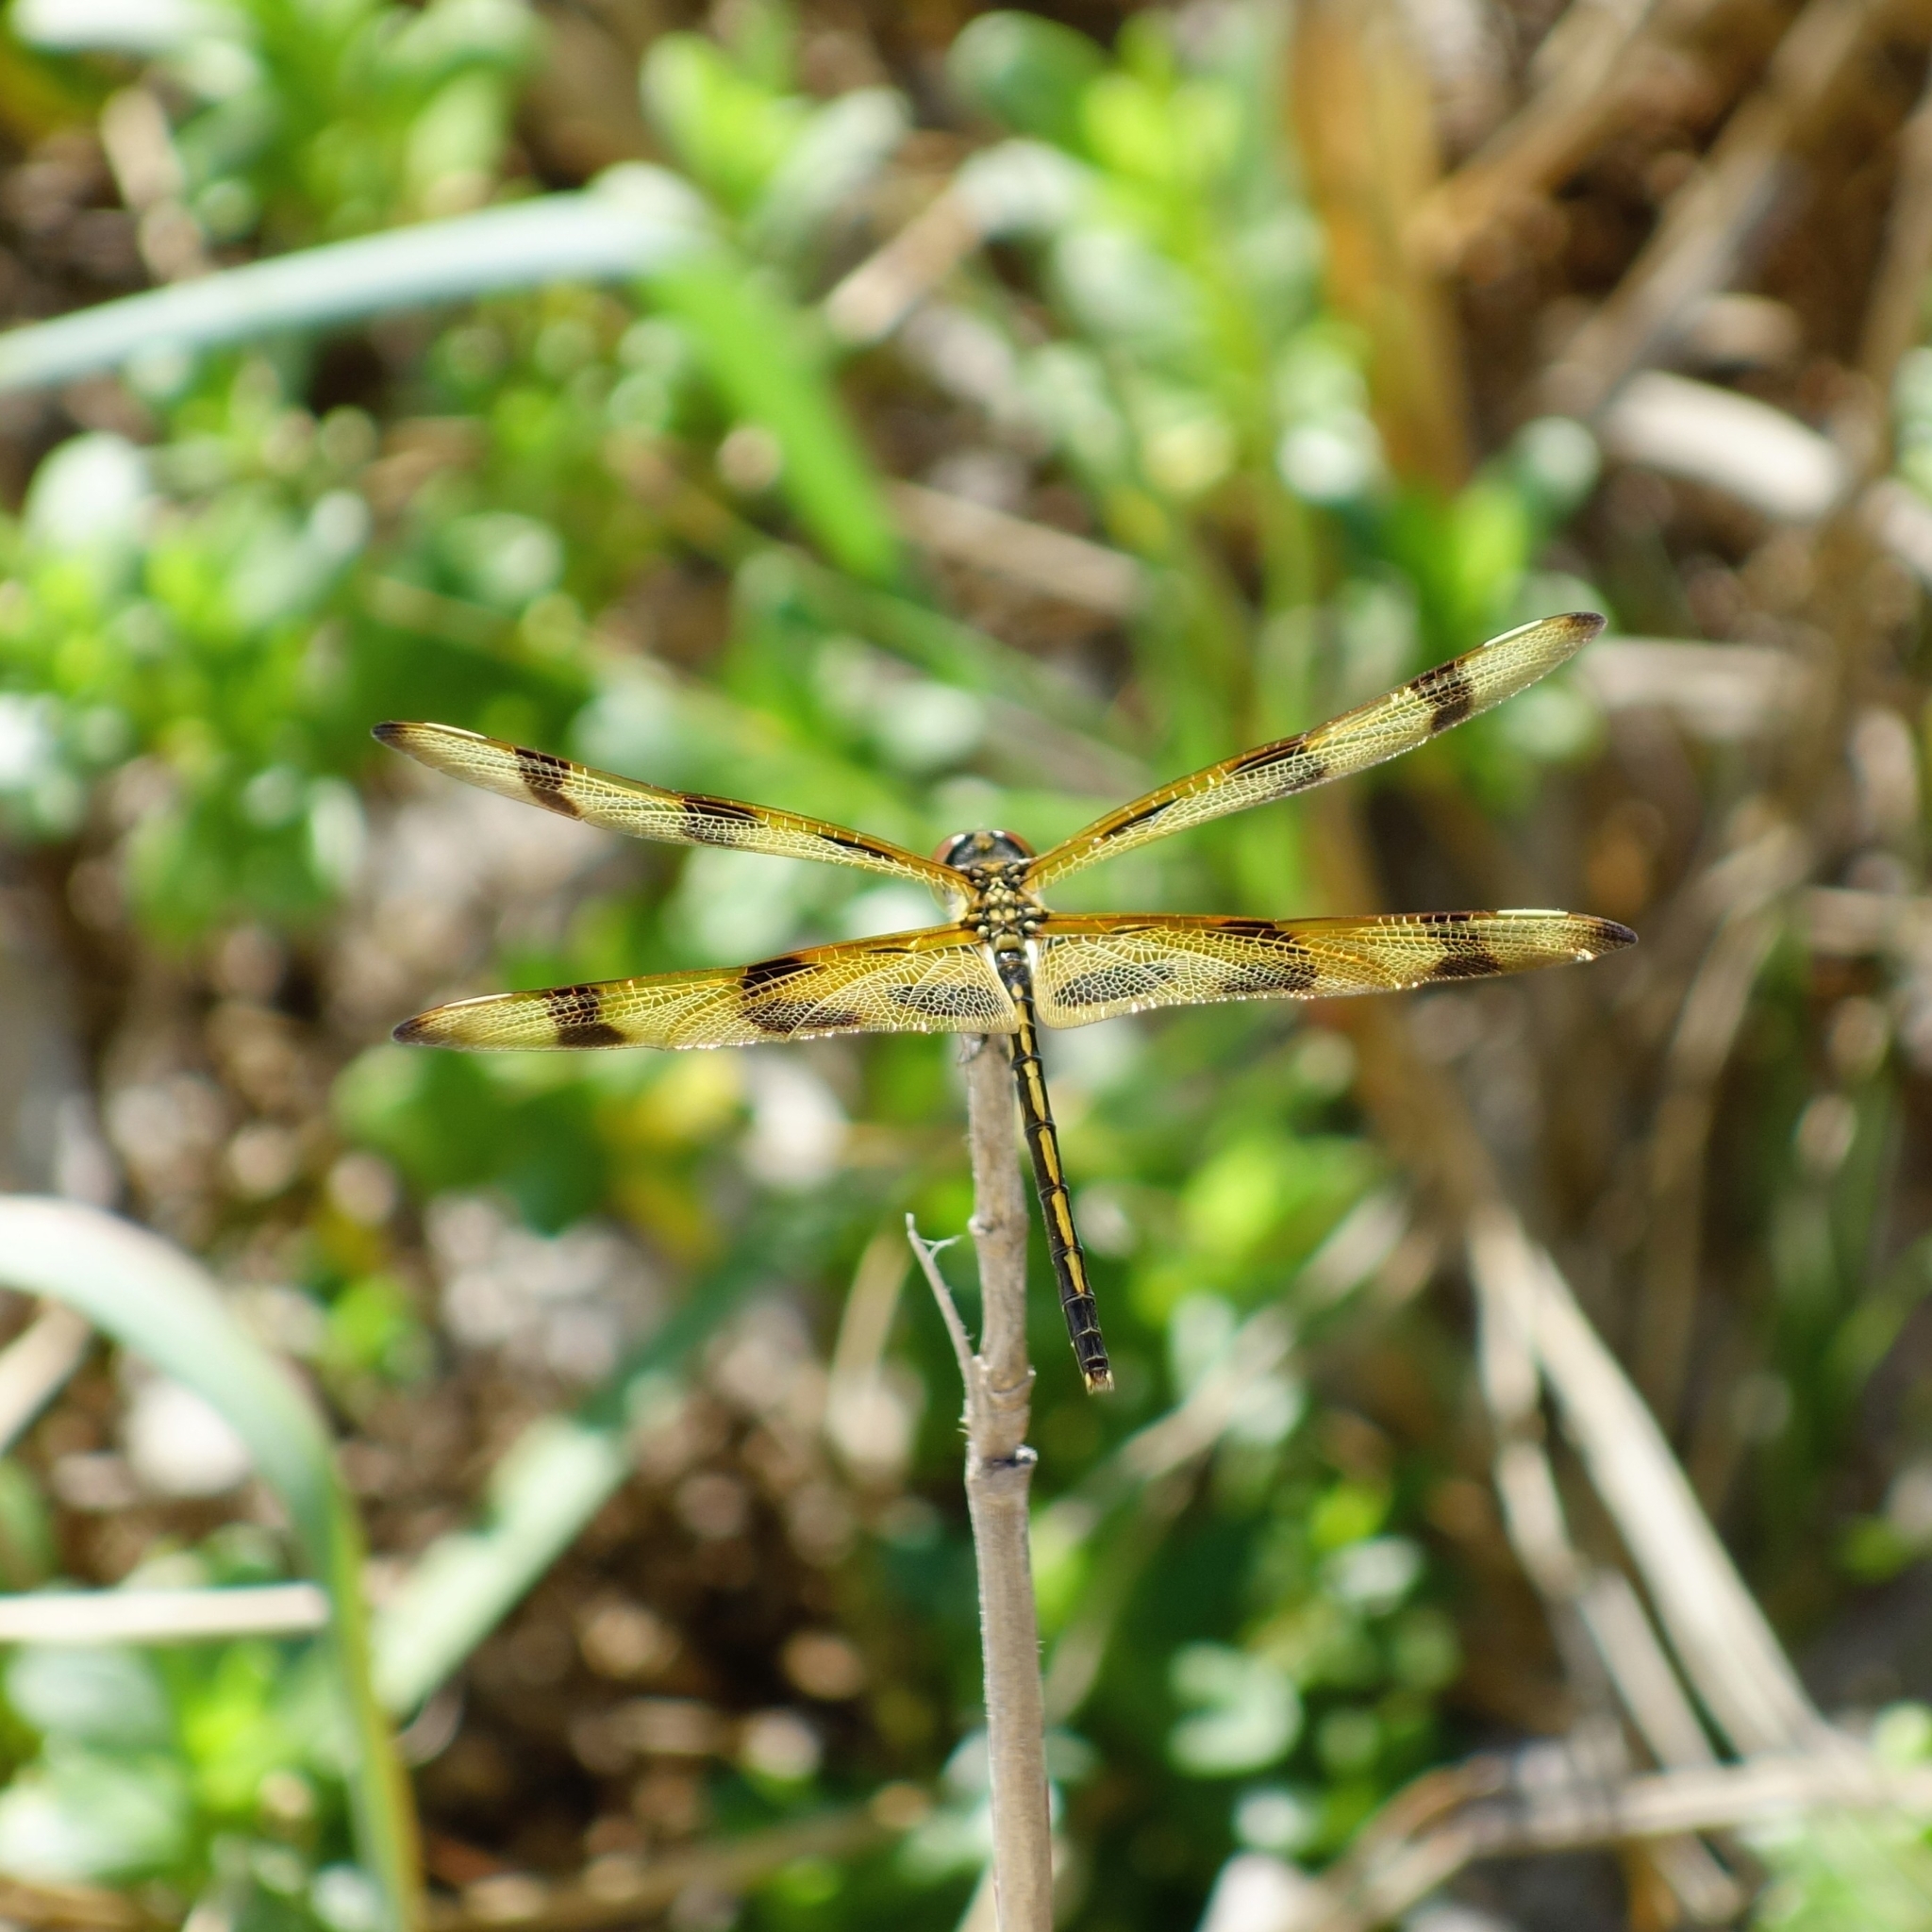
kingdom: Animalia
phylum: Arthropoda
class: Insecta
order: Odonata
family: Libellulidae
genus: Celithemis
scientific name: Celithemis eponina
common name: Halloween pennant
